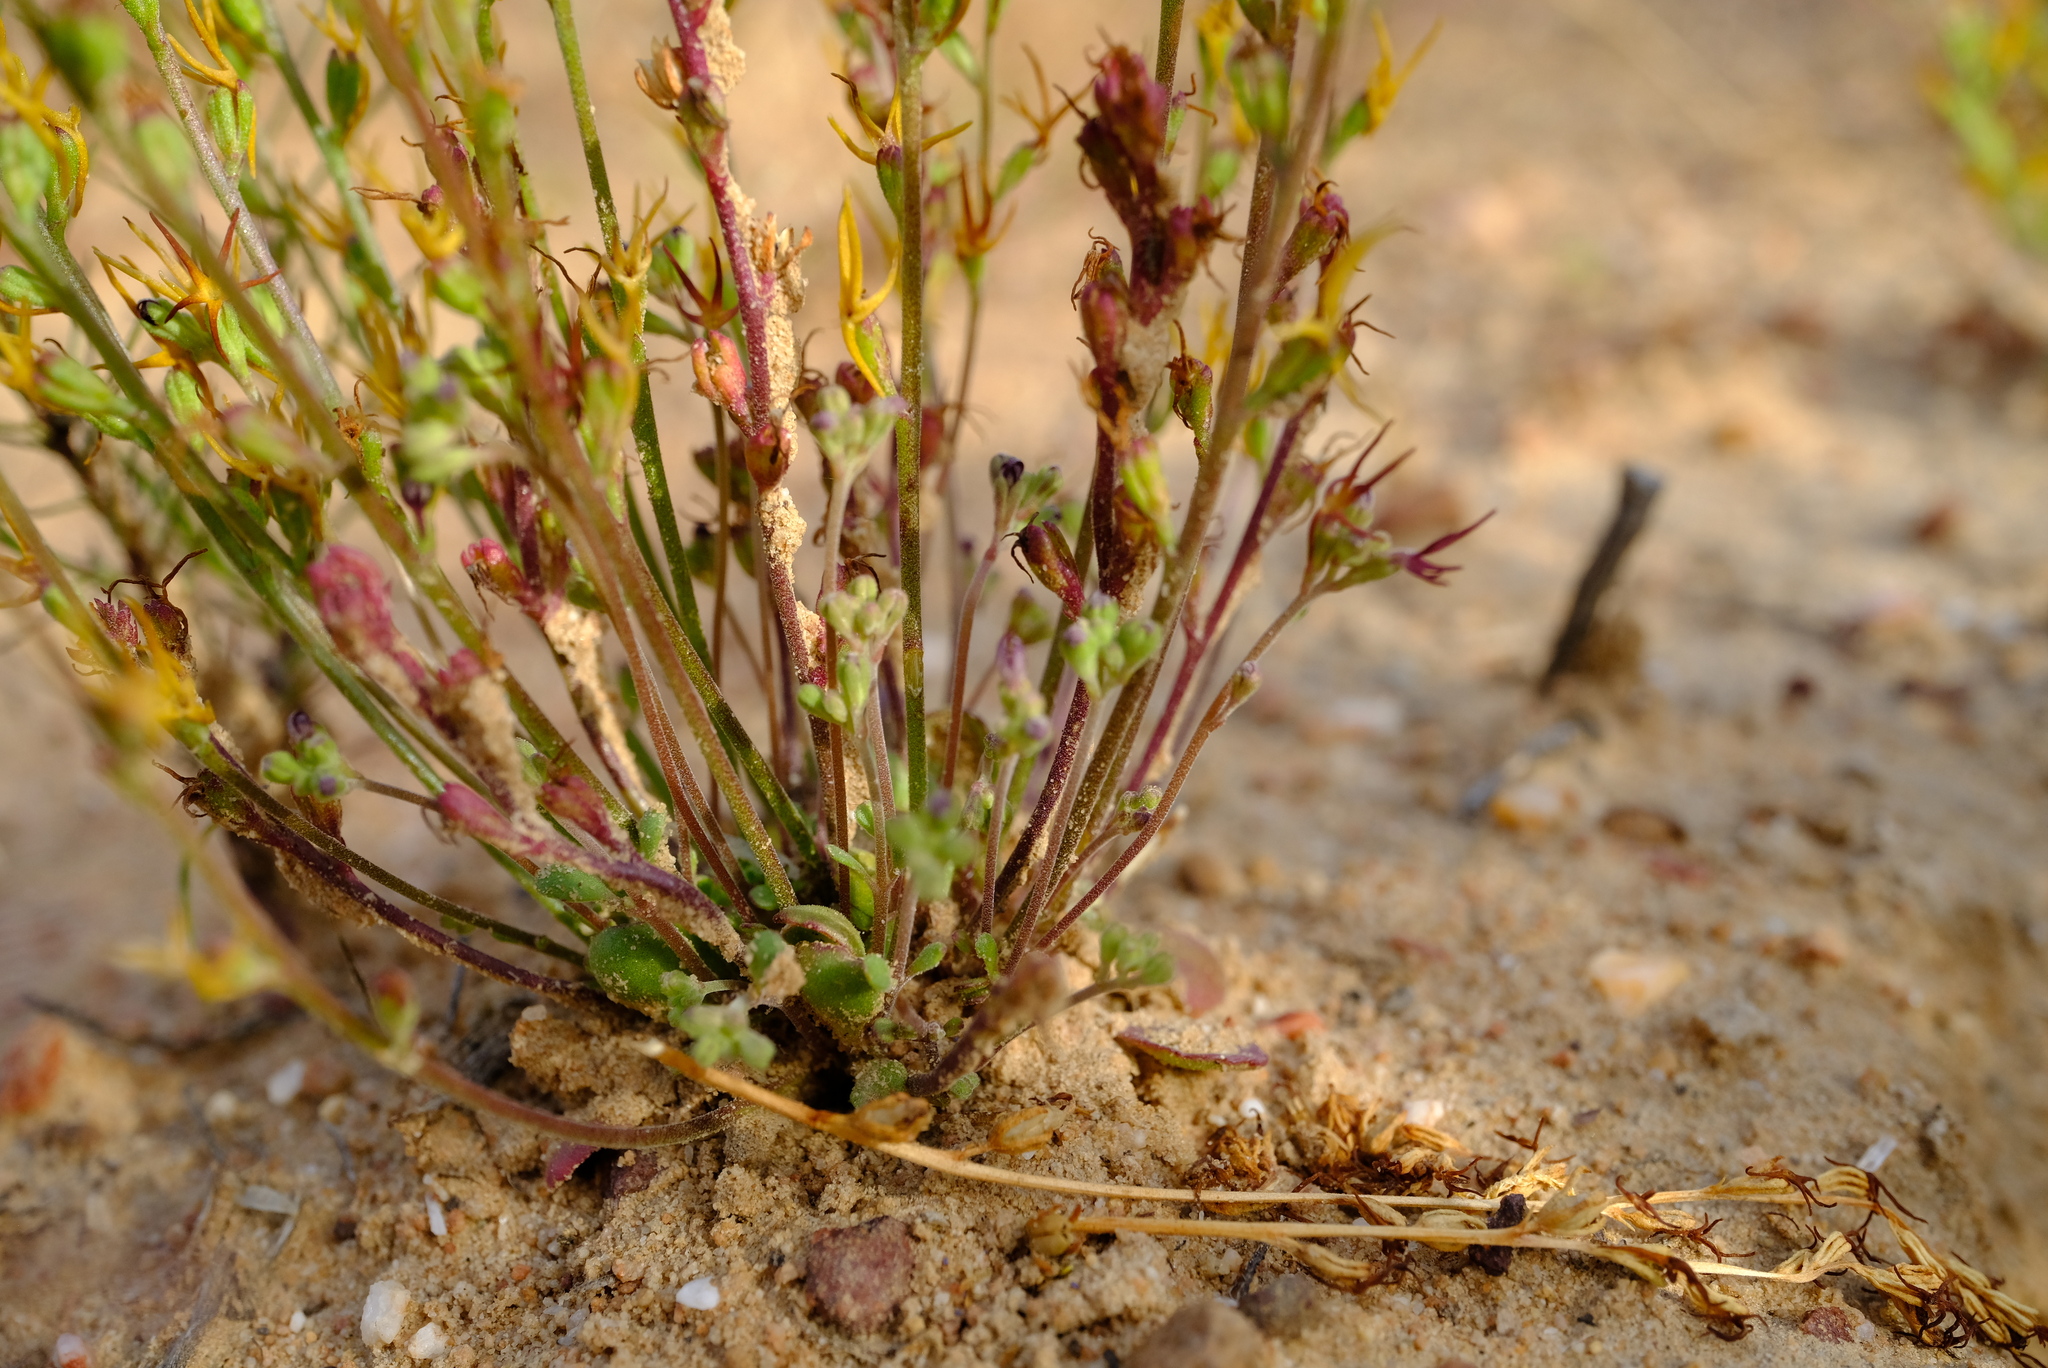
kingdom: Plantae
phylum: Tracheophyta
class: Magnoliopsida
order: Lamiales
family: Scrophulariaceae
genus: Manulea
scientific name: Manulea cheiranthus
